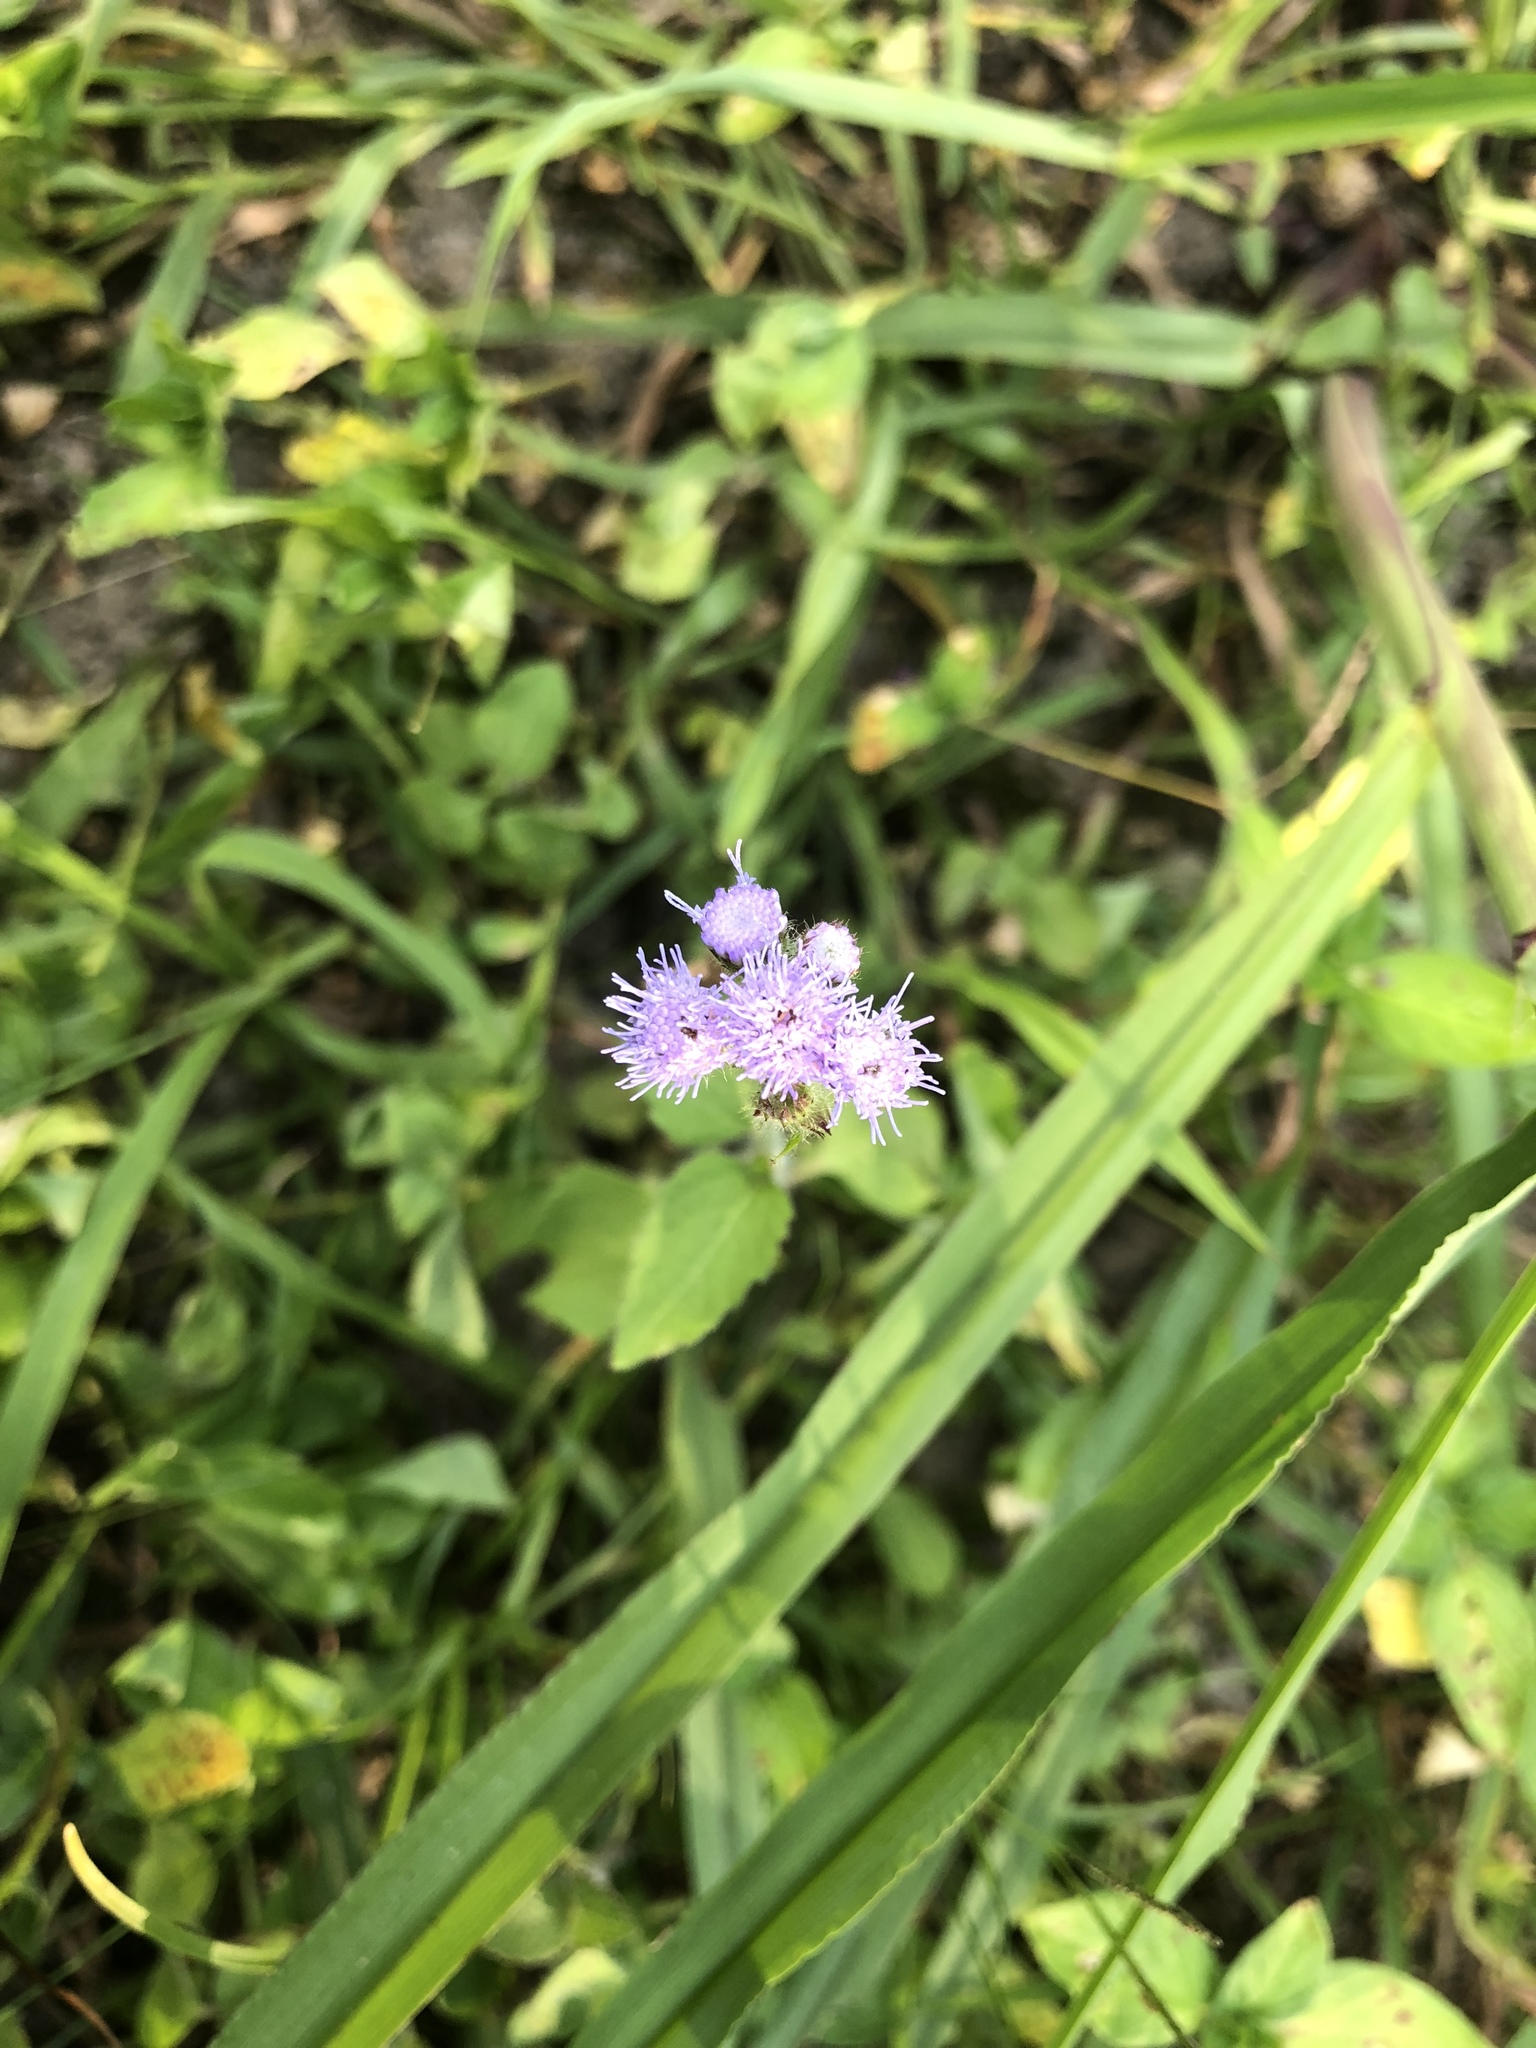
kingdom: Plantae
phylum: Tracheophyta
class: Magnoliopsida
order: Asterales
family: Asteraceae
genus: Ageratum
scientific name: Ageratum houstonianum
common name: Bluemink
